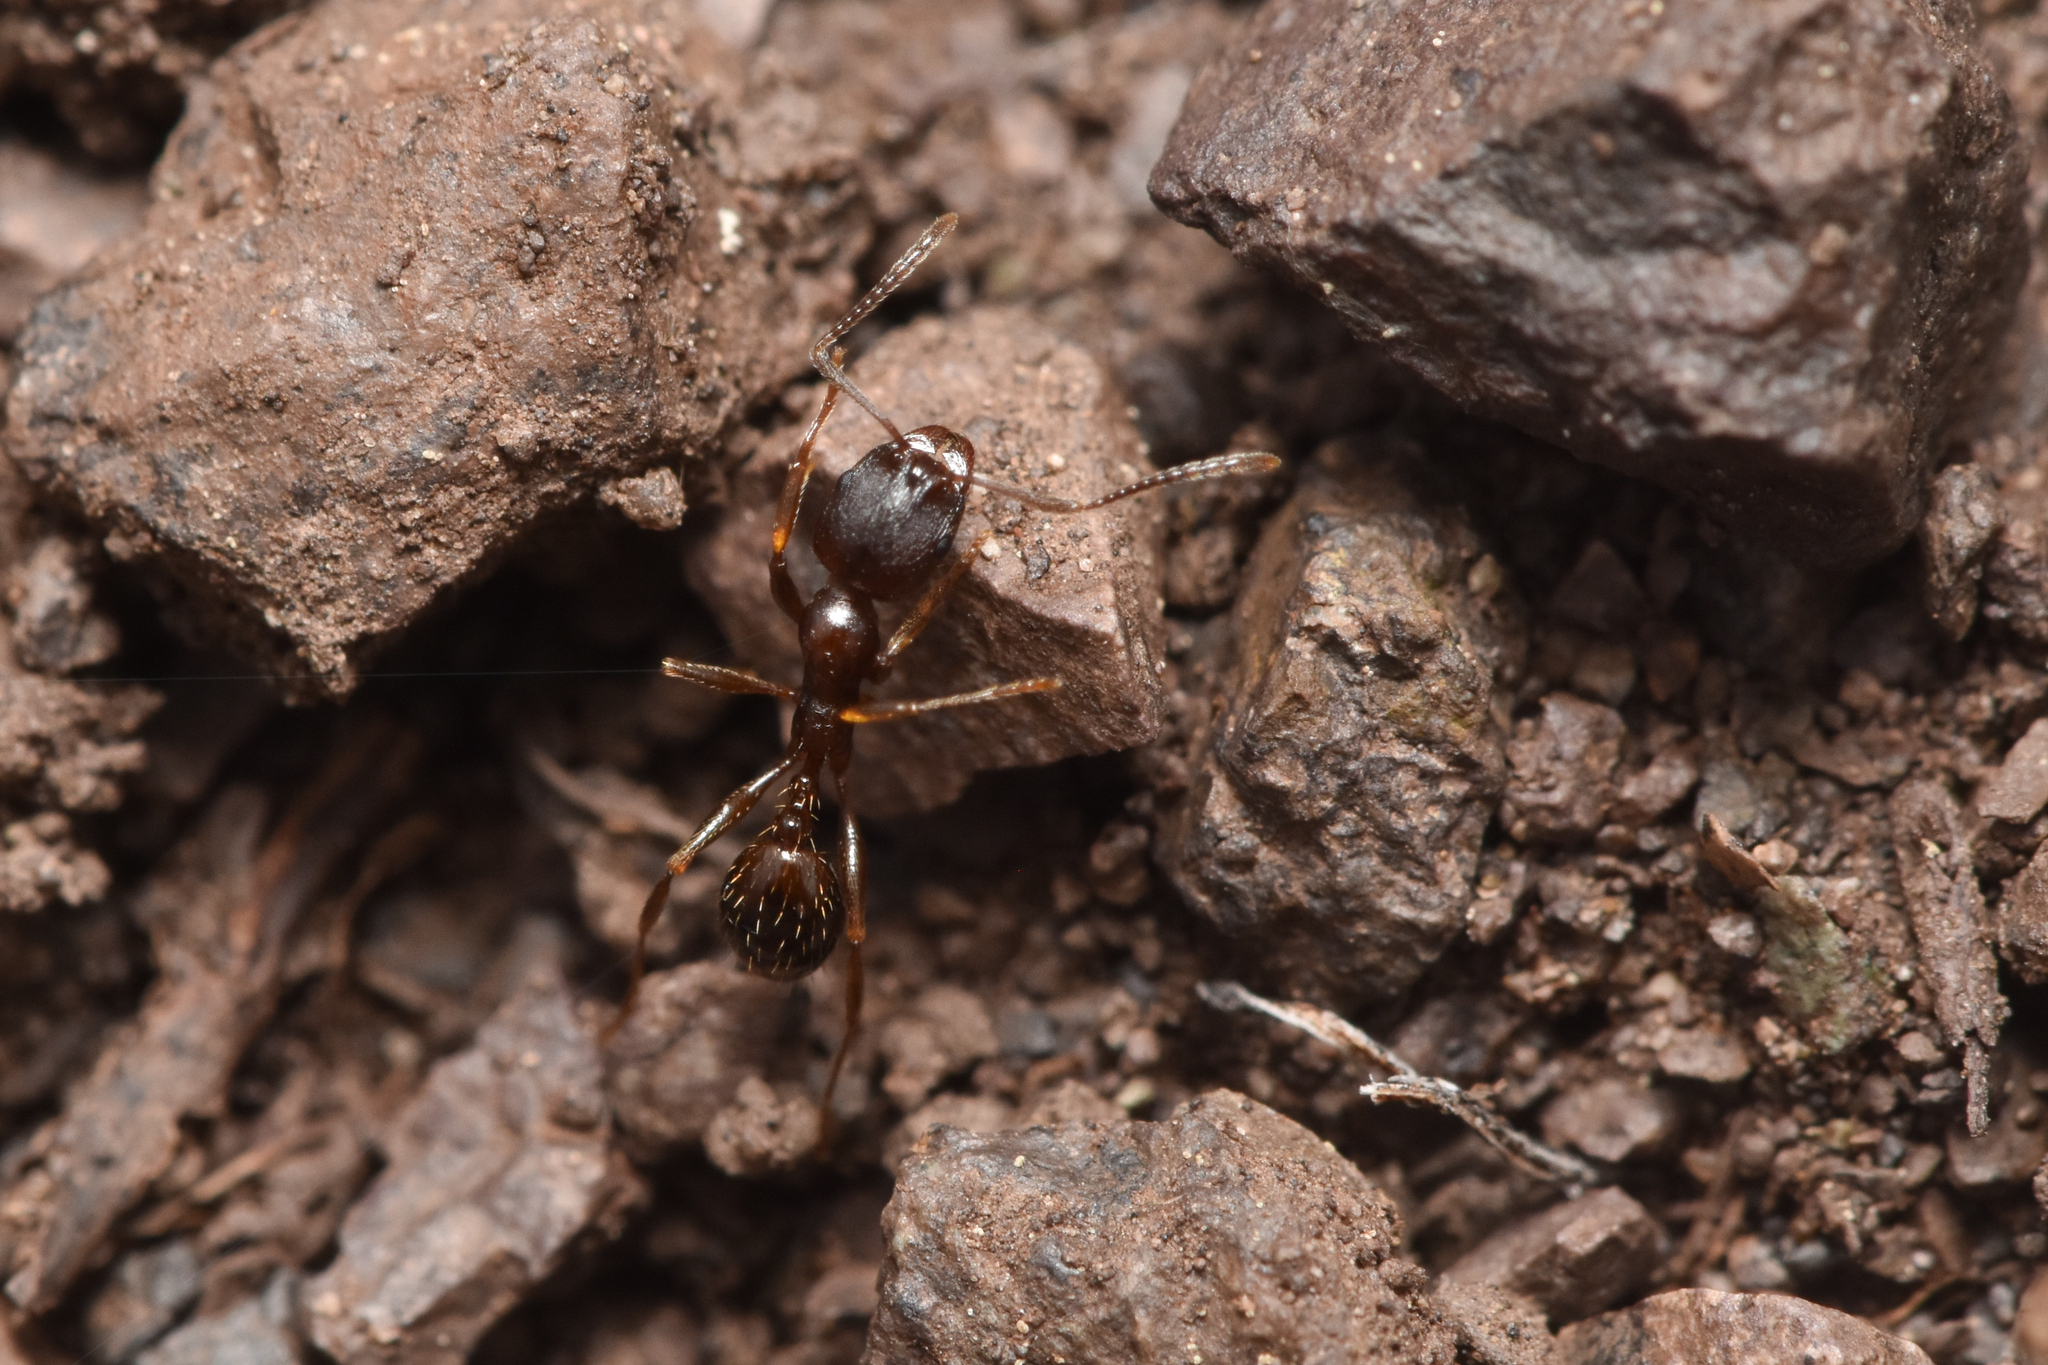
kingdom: Animalia
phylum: Arthropoda
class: Insecta
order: Hymenoptera
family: Formicidae
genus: Aphaenogaster
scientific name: Aphaenogaster occidentalis
